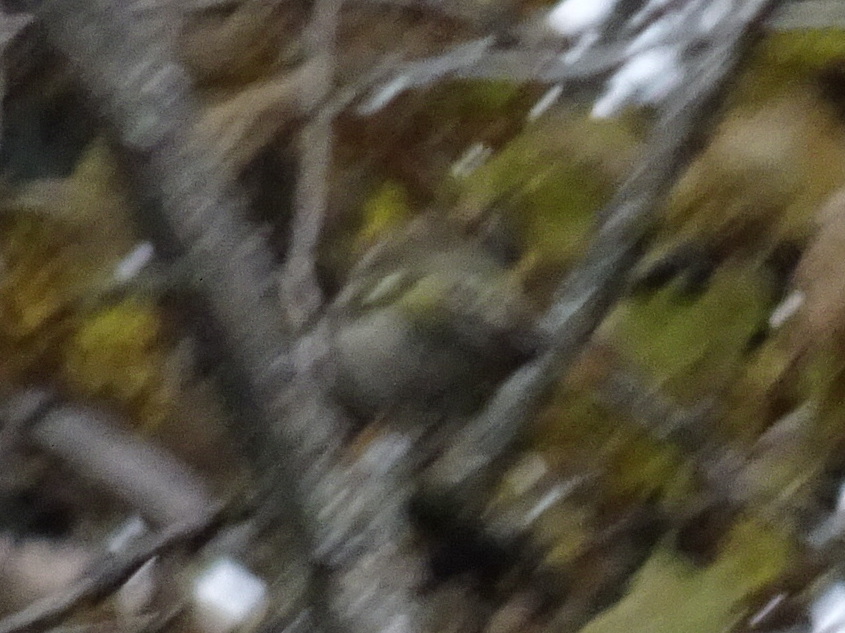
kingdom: Animalia
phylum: Chordata
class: Aves
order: Passeriformes
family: Regulidae
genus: Regulus
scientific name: Regulus satrapa
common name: Golden-crowned kinglet
